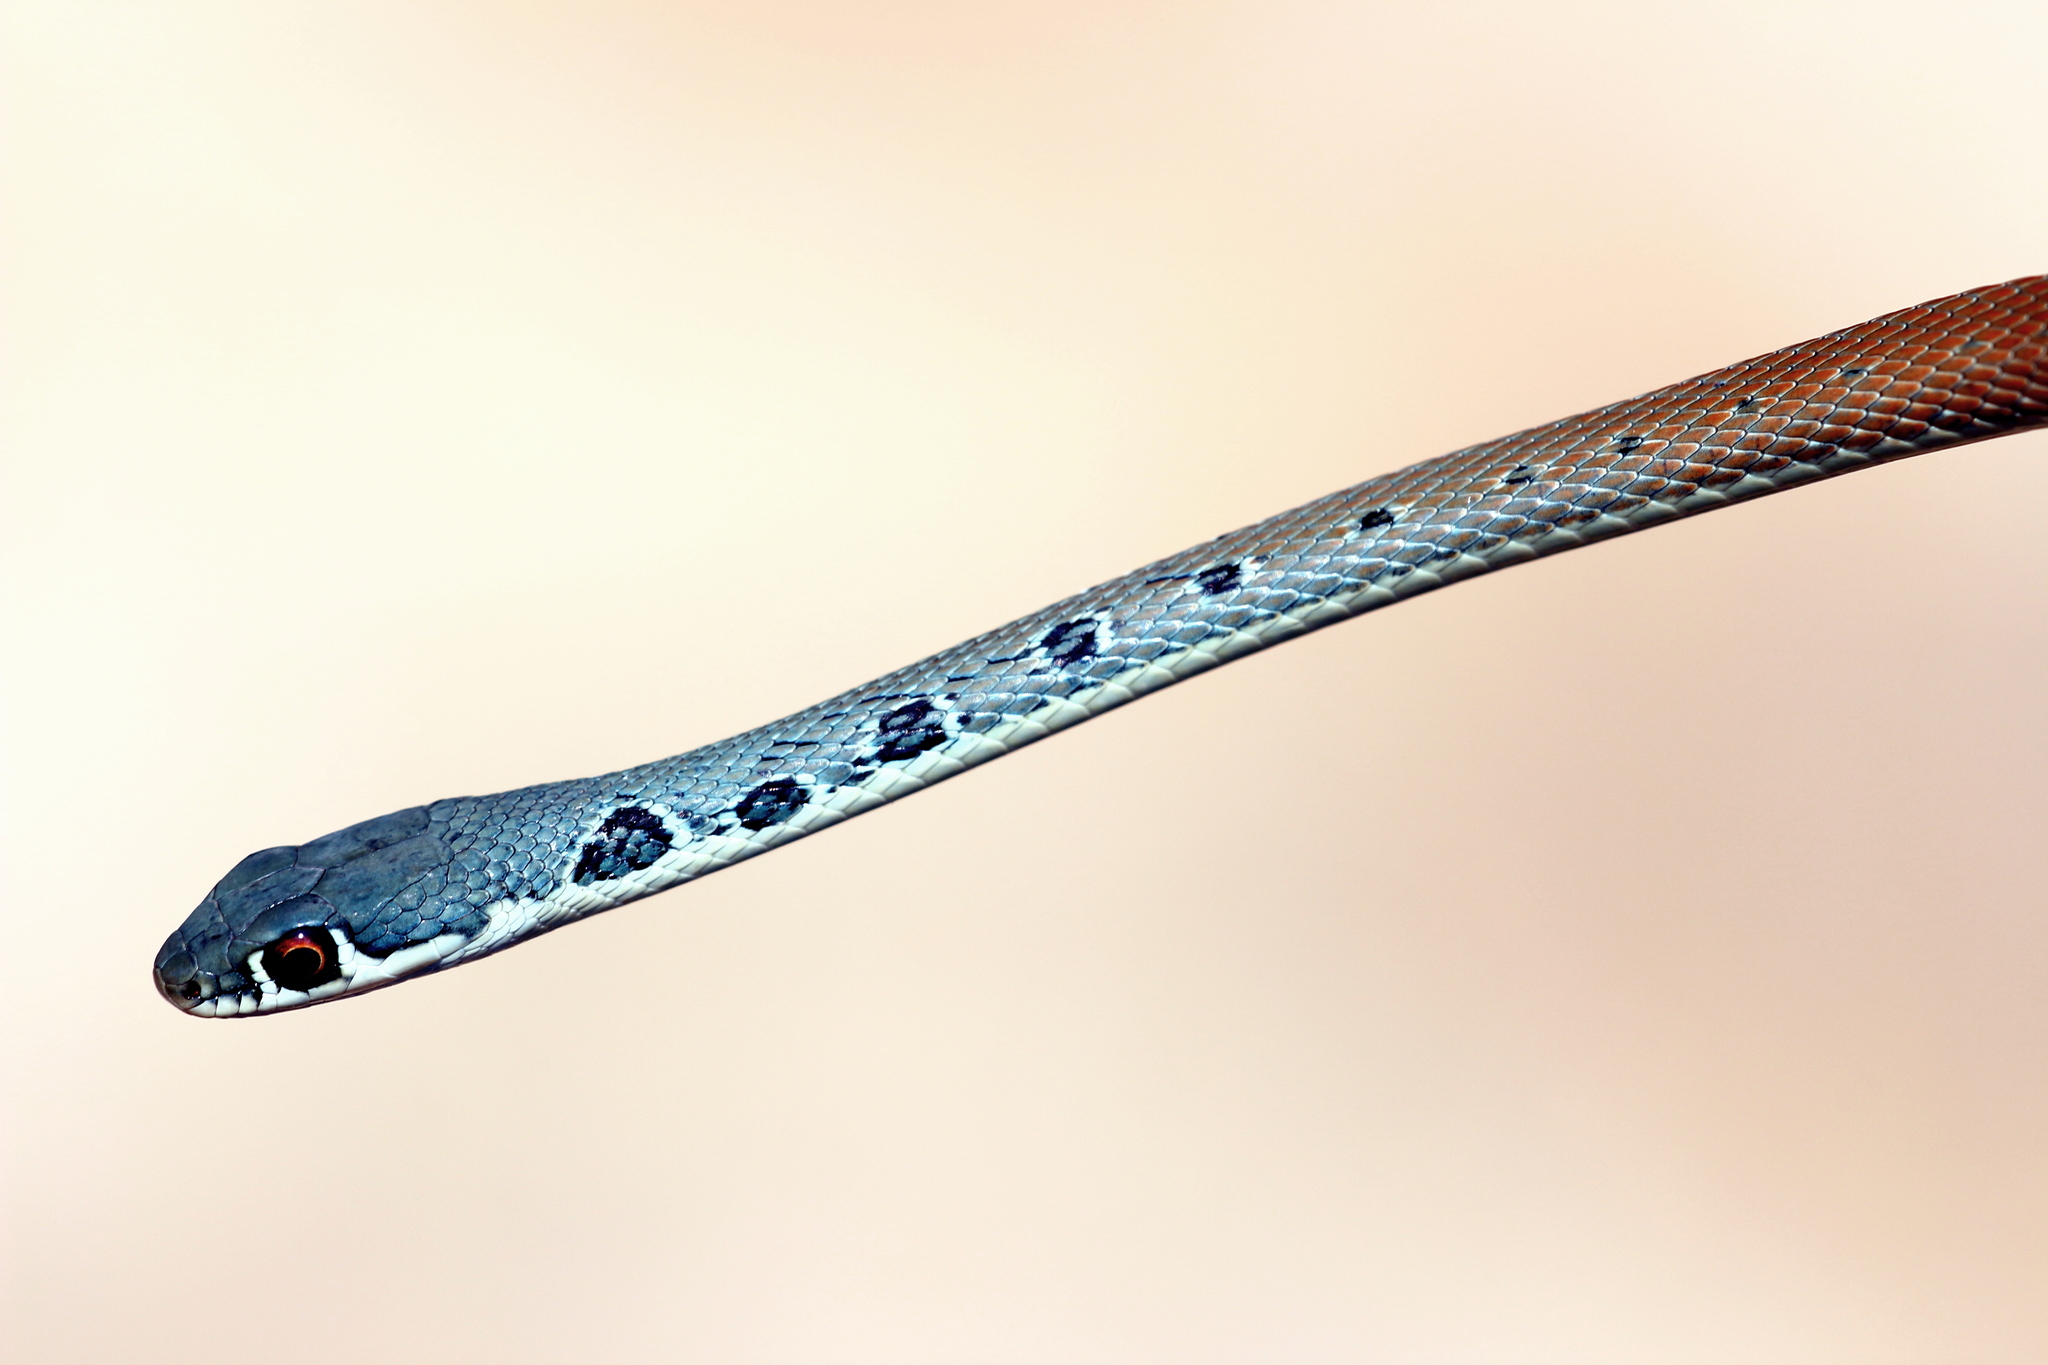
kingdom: Animalia
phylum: Chordata
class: Squamata
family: Colubridae
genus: Platyceps
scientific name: Platyceps najadum
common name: Dahl's whip snake
